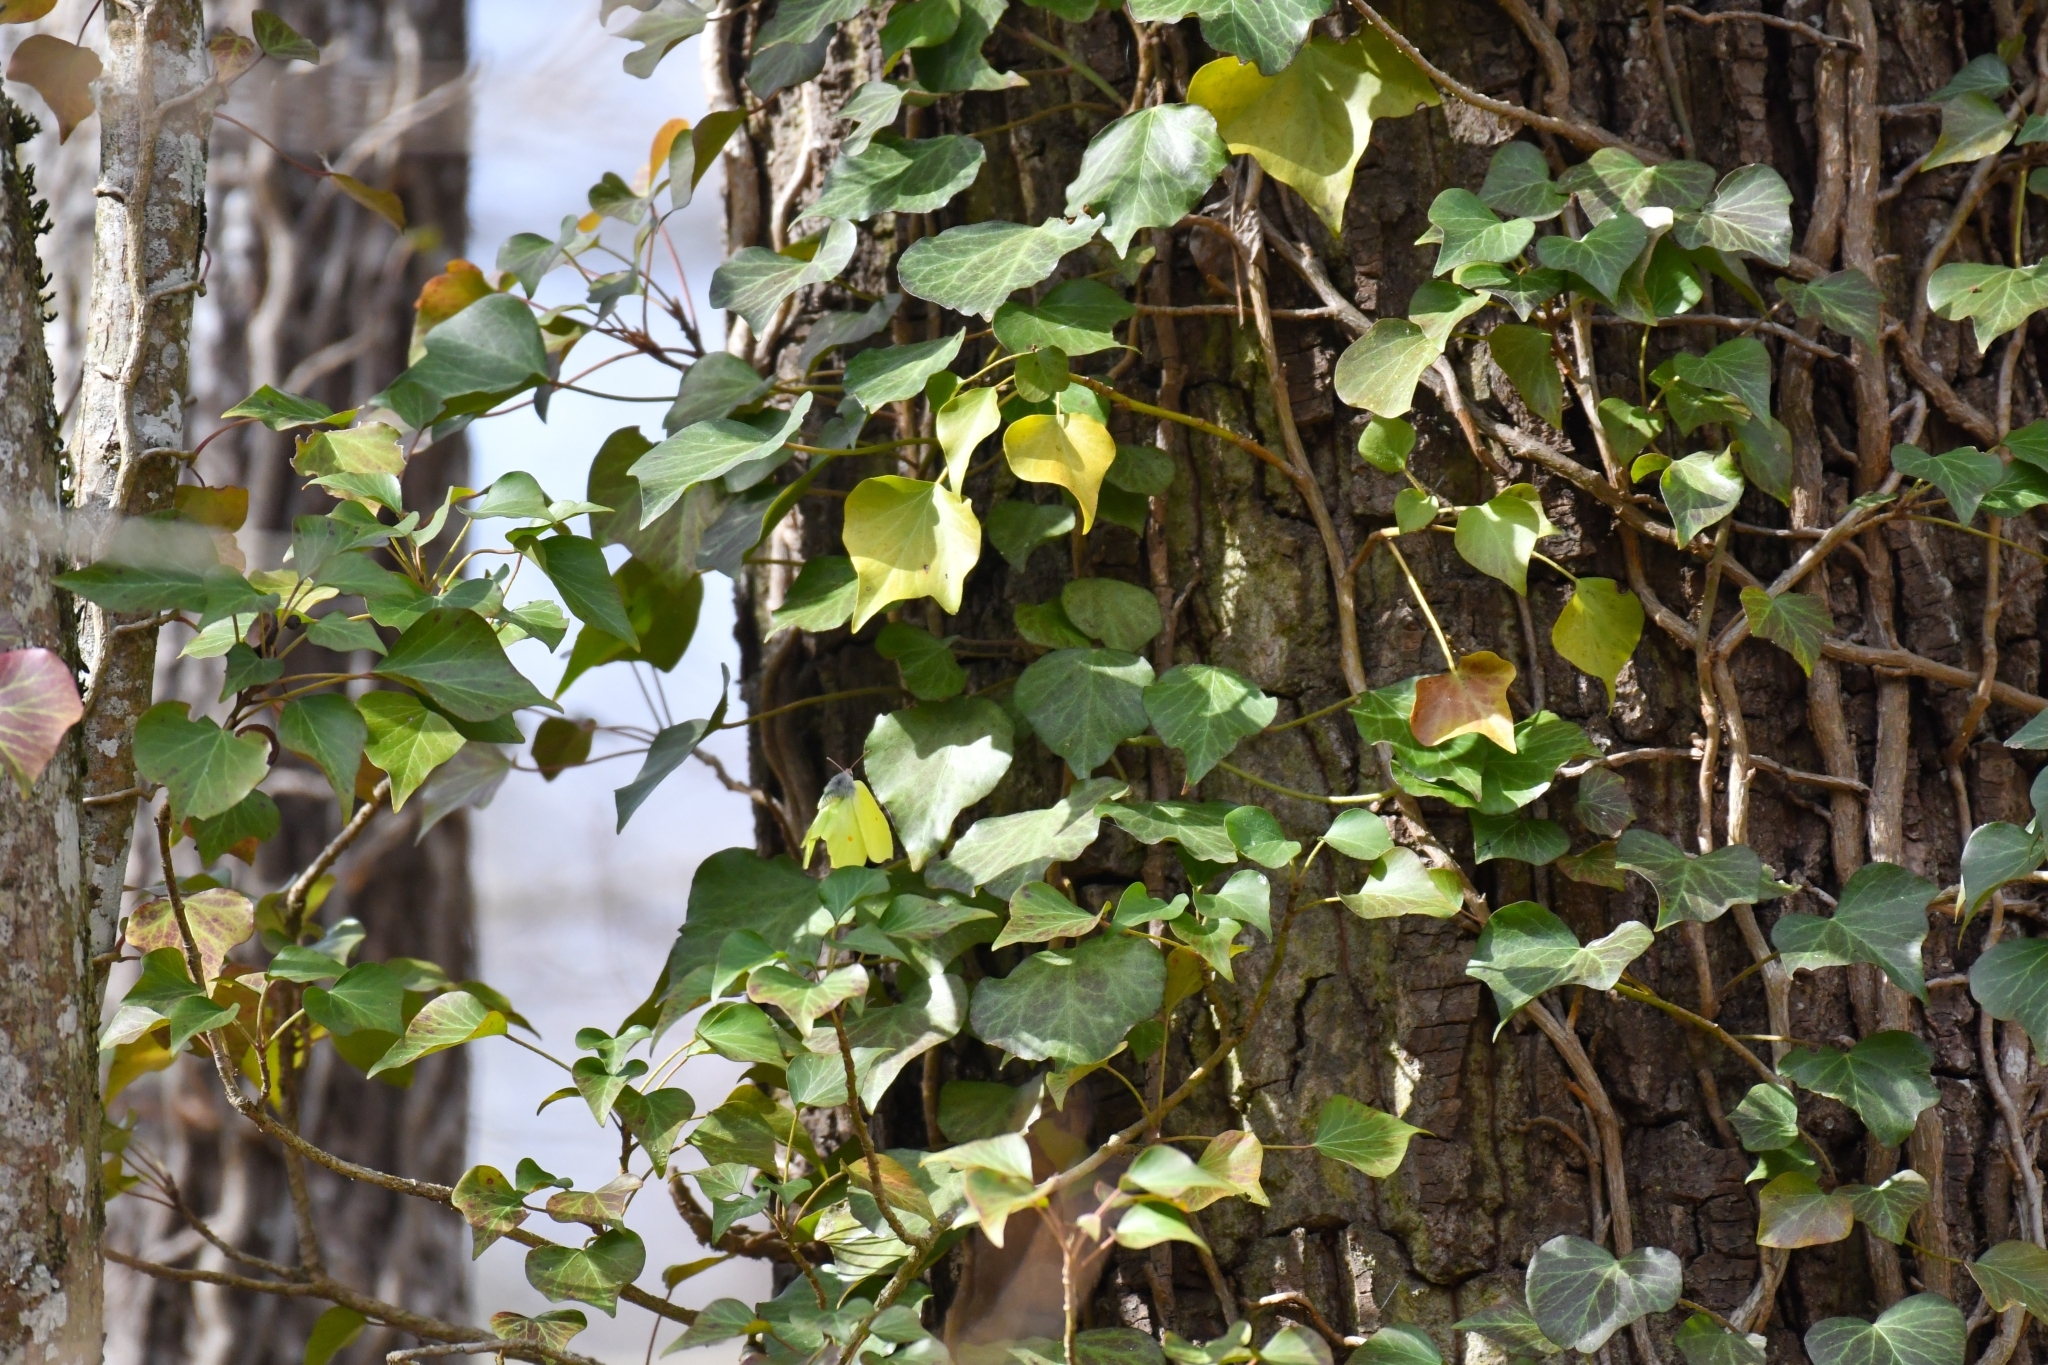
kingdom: Animalia
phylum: Arthropoda
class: Insecta
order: Lepidoptera
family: Pieridae
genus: Gonepteryx
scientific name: Gonepteryx rhamni
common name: Brimstone
